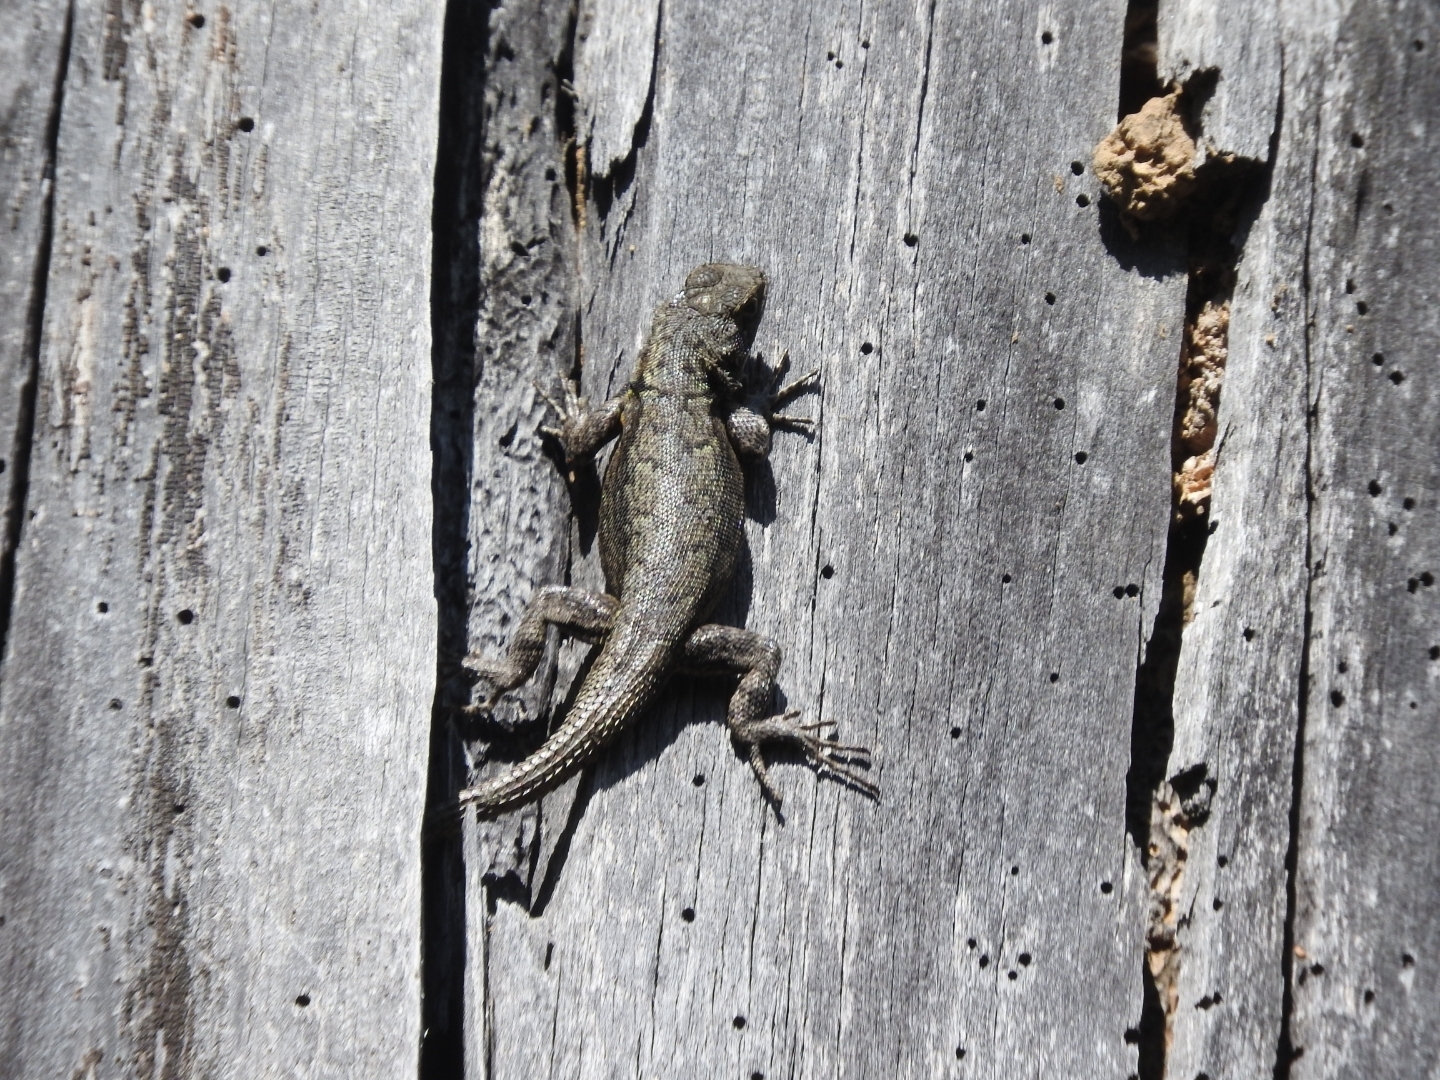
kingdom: Animalia
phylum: Chordata
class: Squamata
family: Phrynosomatidae
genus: Sceloporus
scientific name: Sceloporus grammicus
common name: Mesquite lizard
